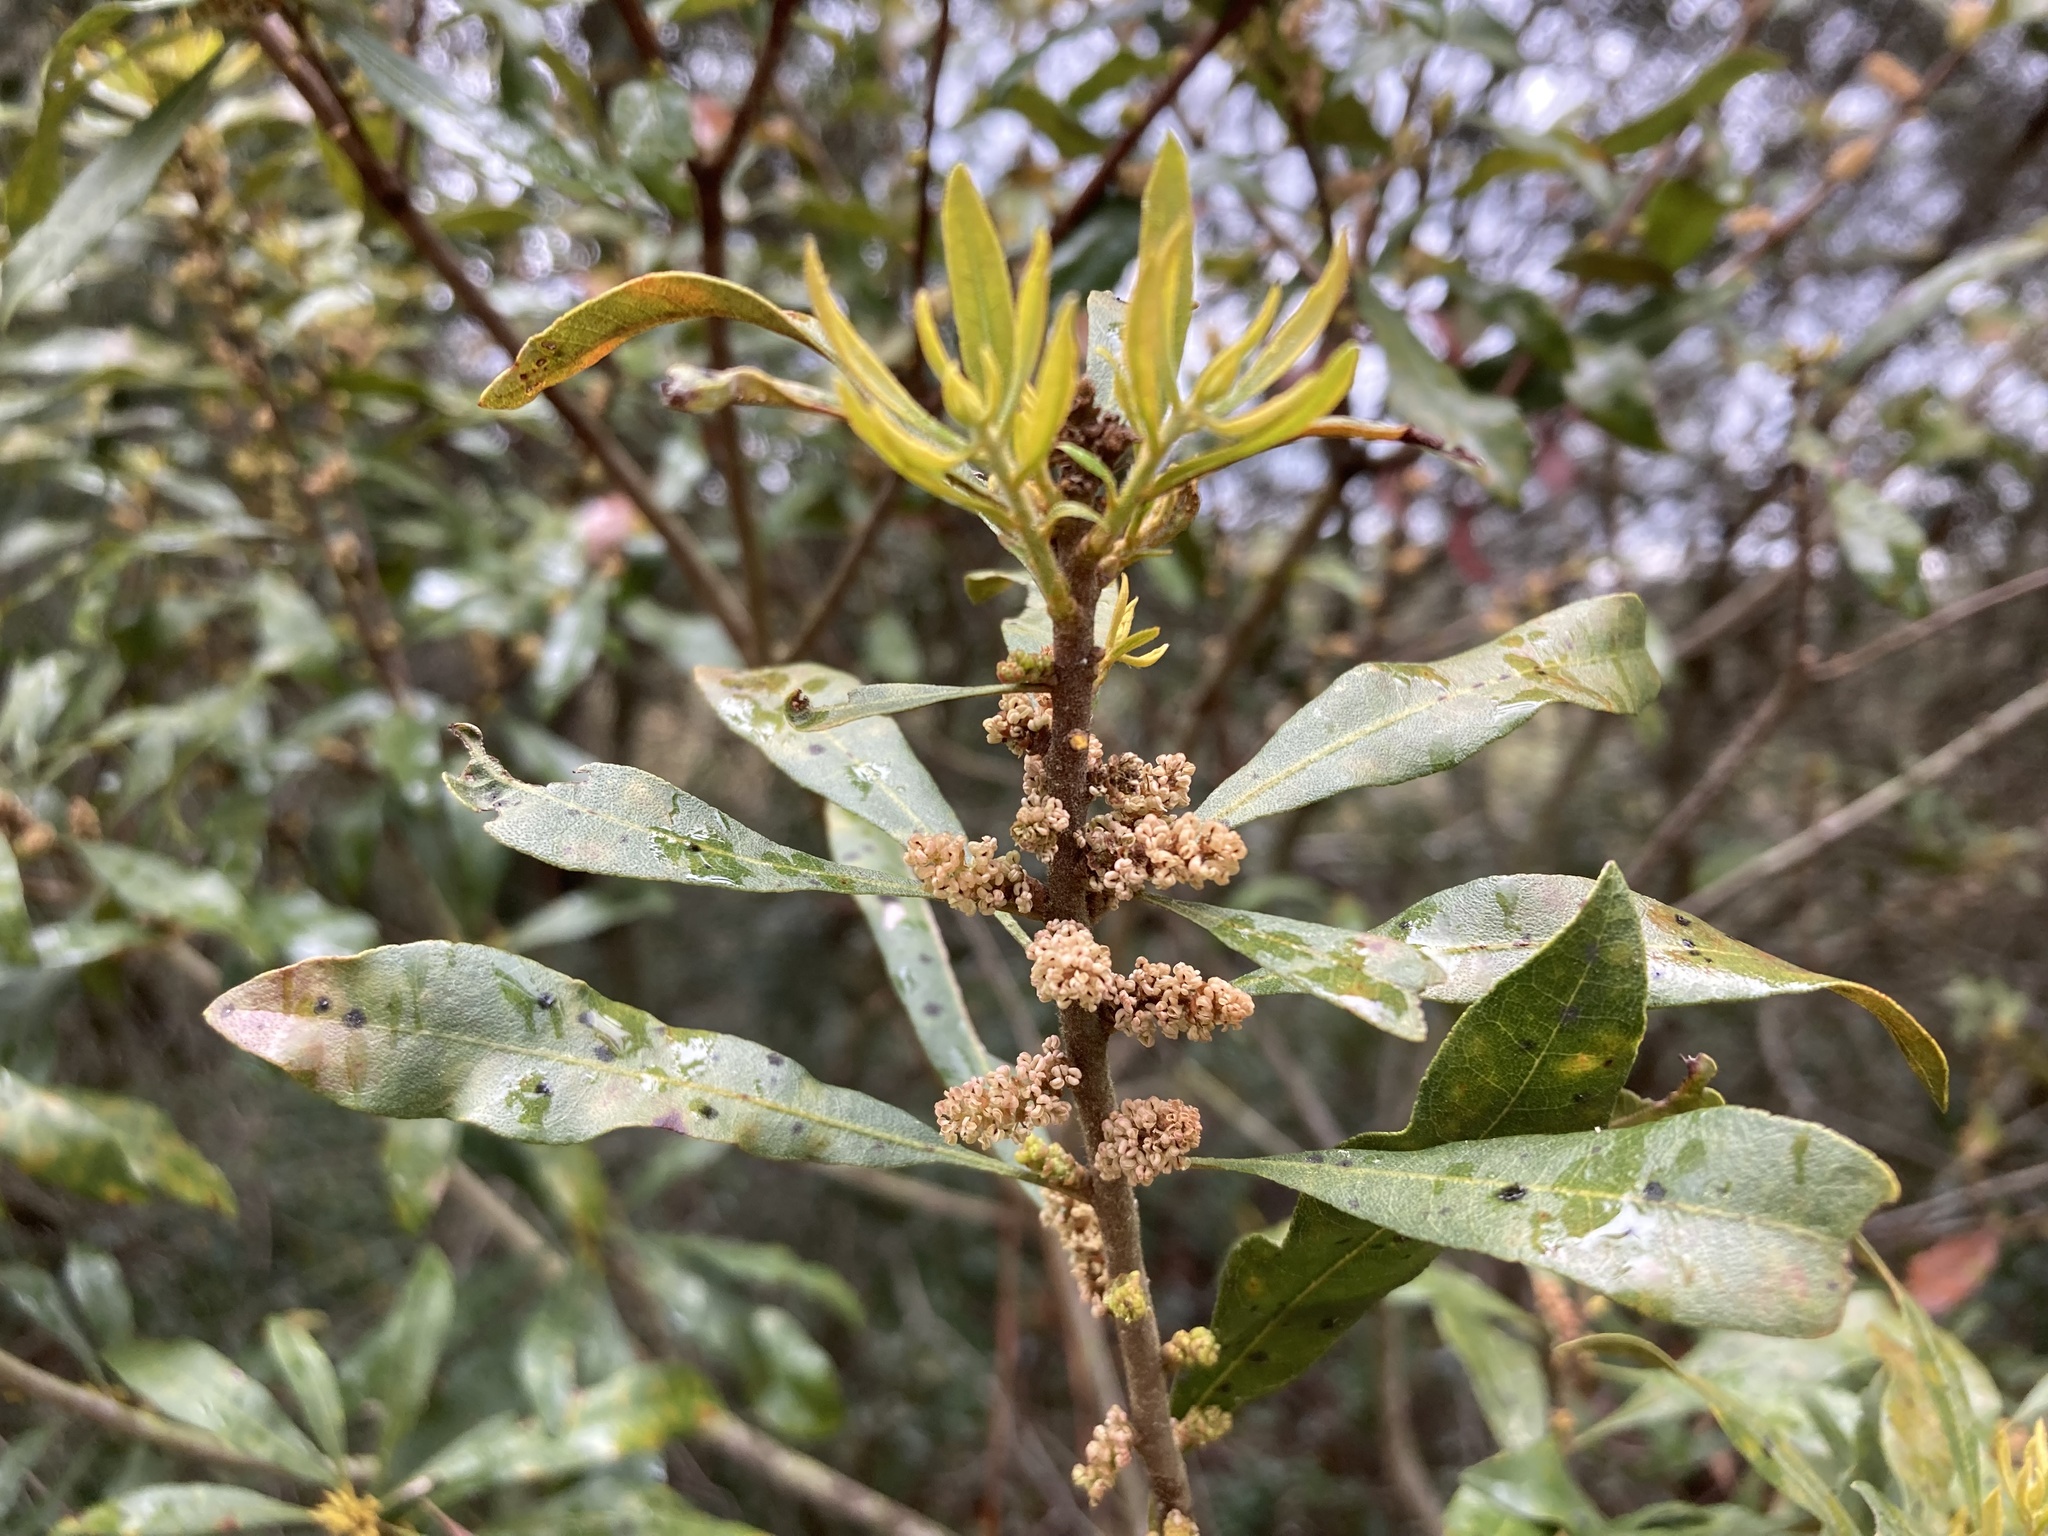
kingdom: Plantae
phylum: Tracheophyta
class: Magnoliopsida
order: Fagales
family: Myricaceae
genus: Morella
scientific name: Morella cerifera
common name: Wax myrtle
